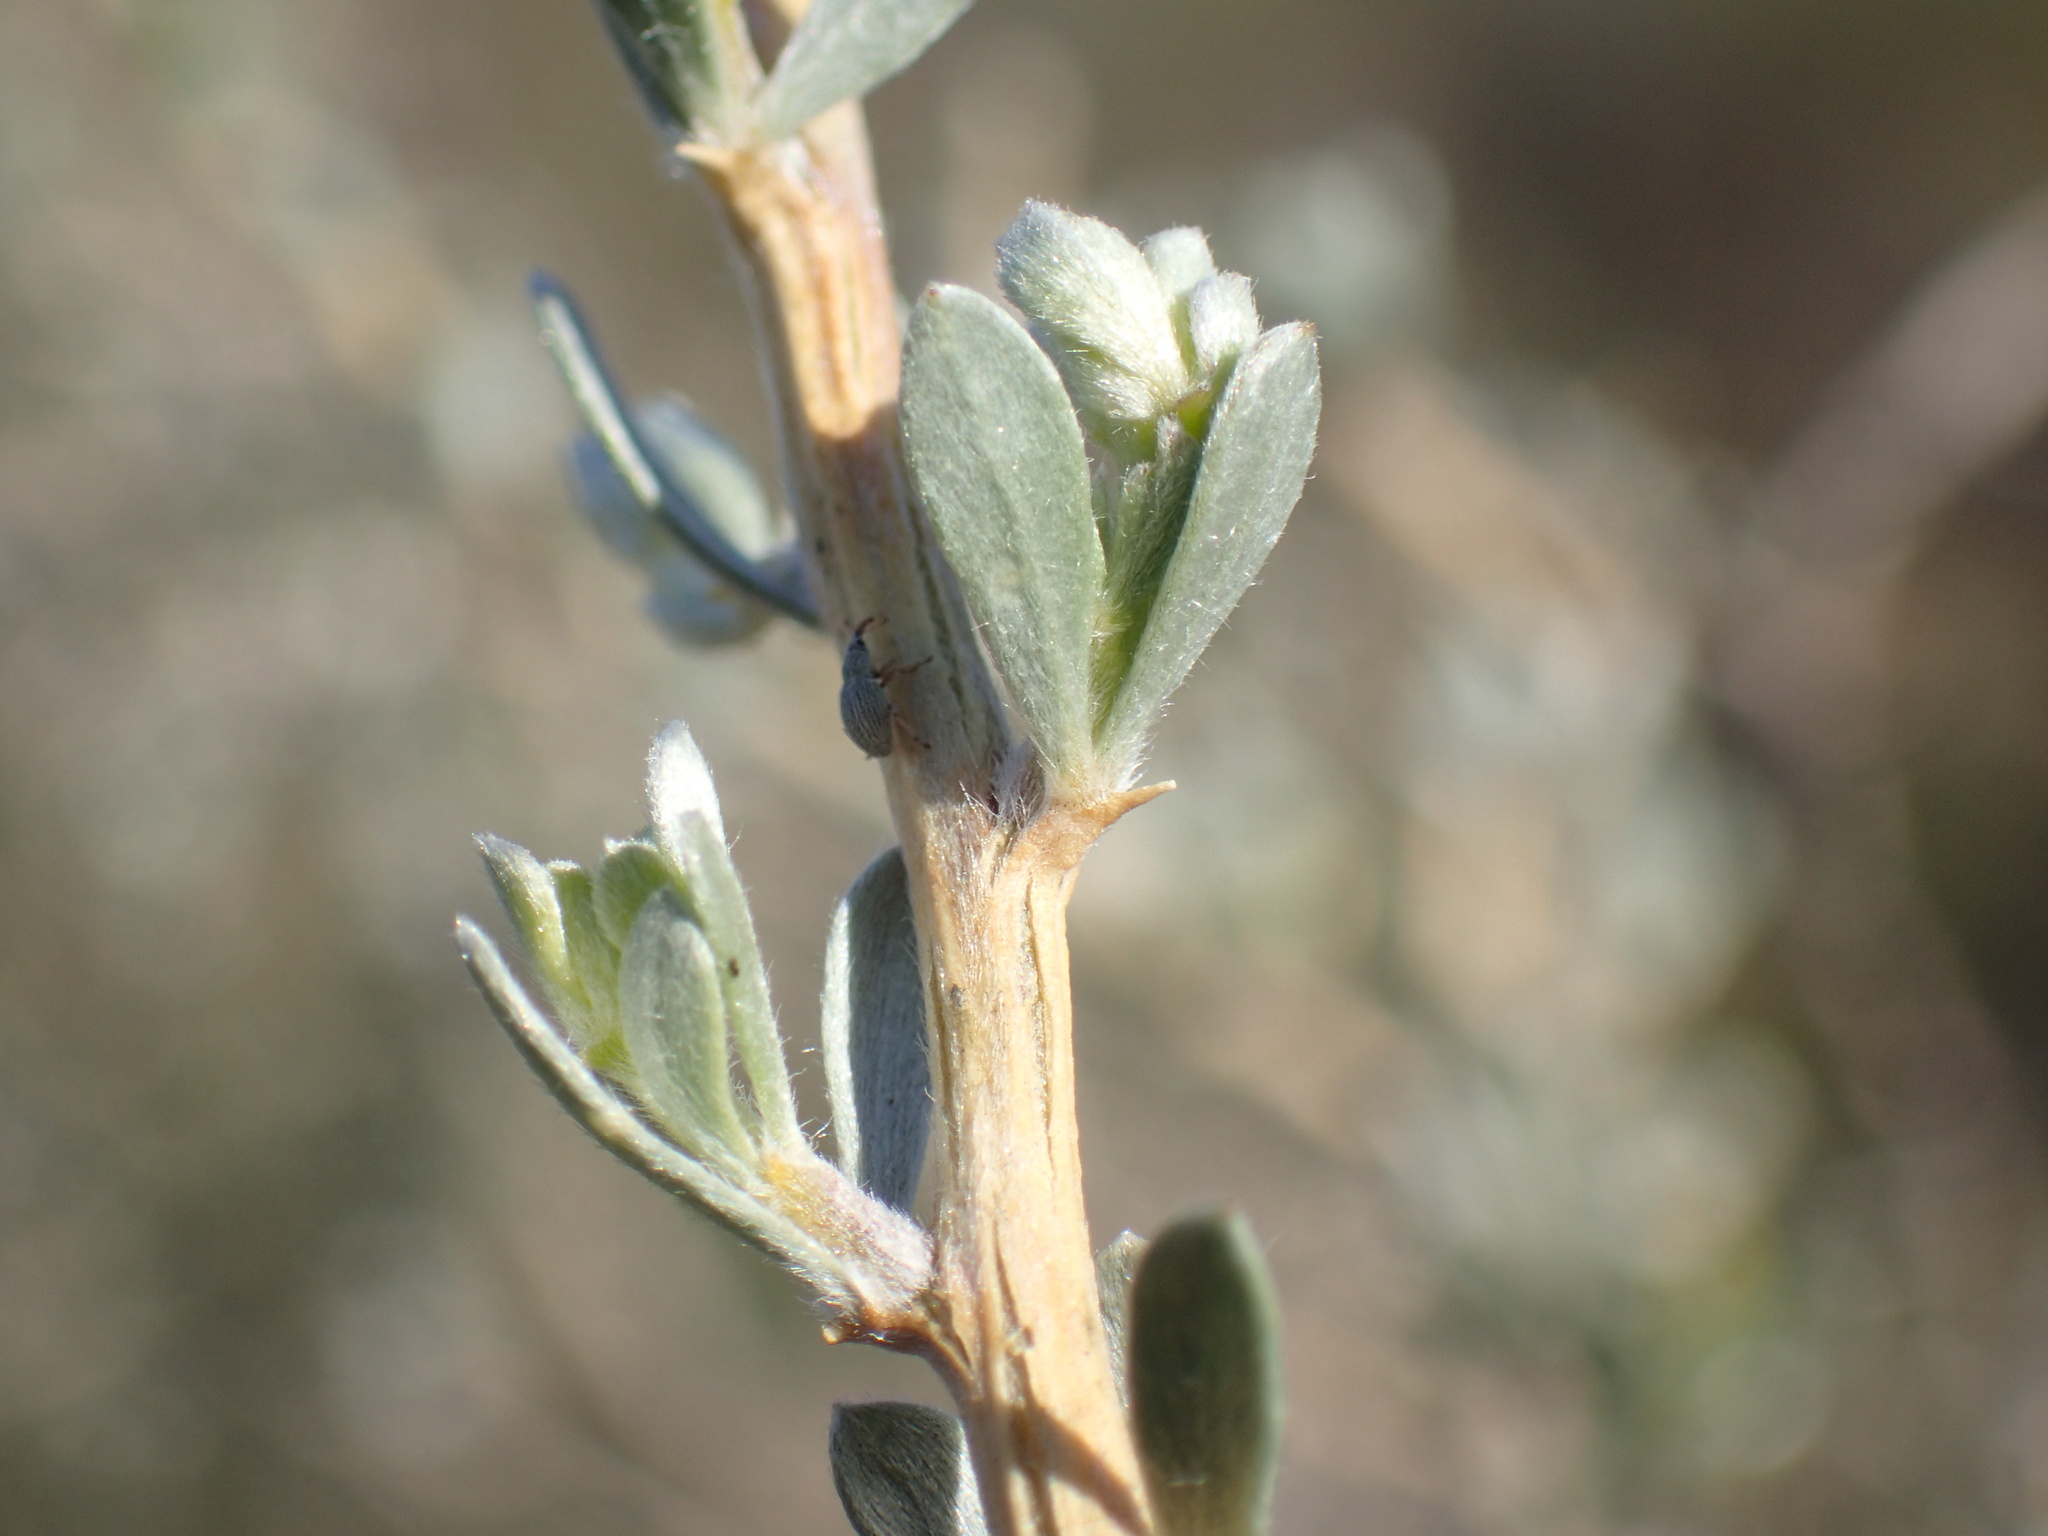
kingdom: Plantae
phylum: Tracheophyta
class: Magnoliopsida
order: Fabales
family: Fabaceae
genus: Aspalathus
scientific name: Aspalathus ternata
